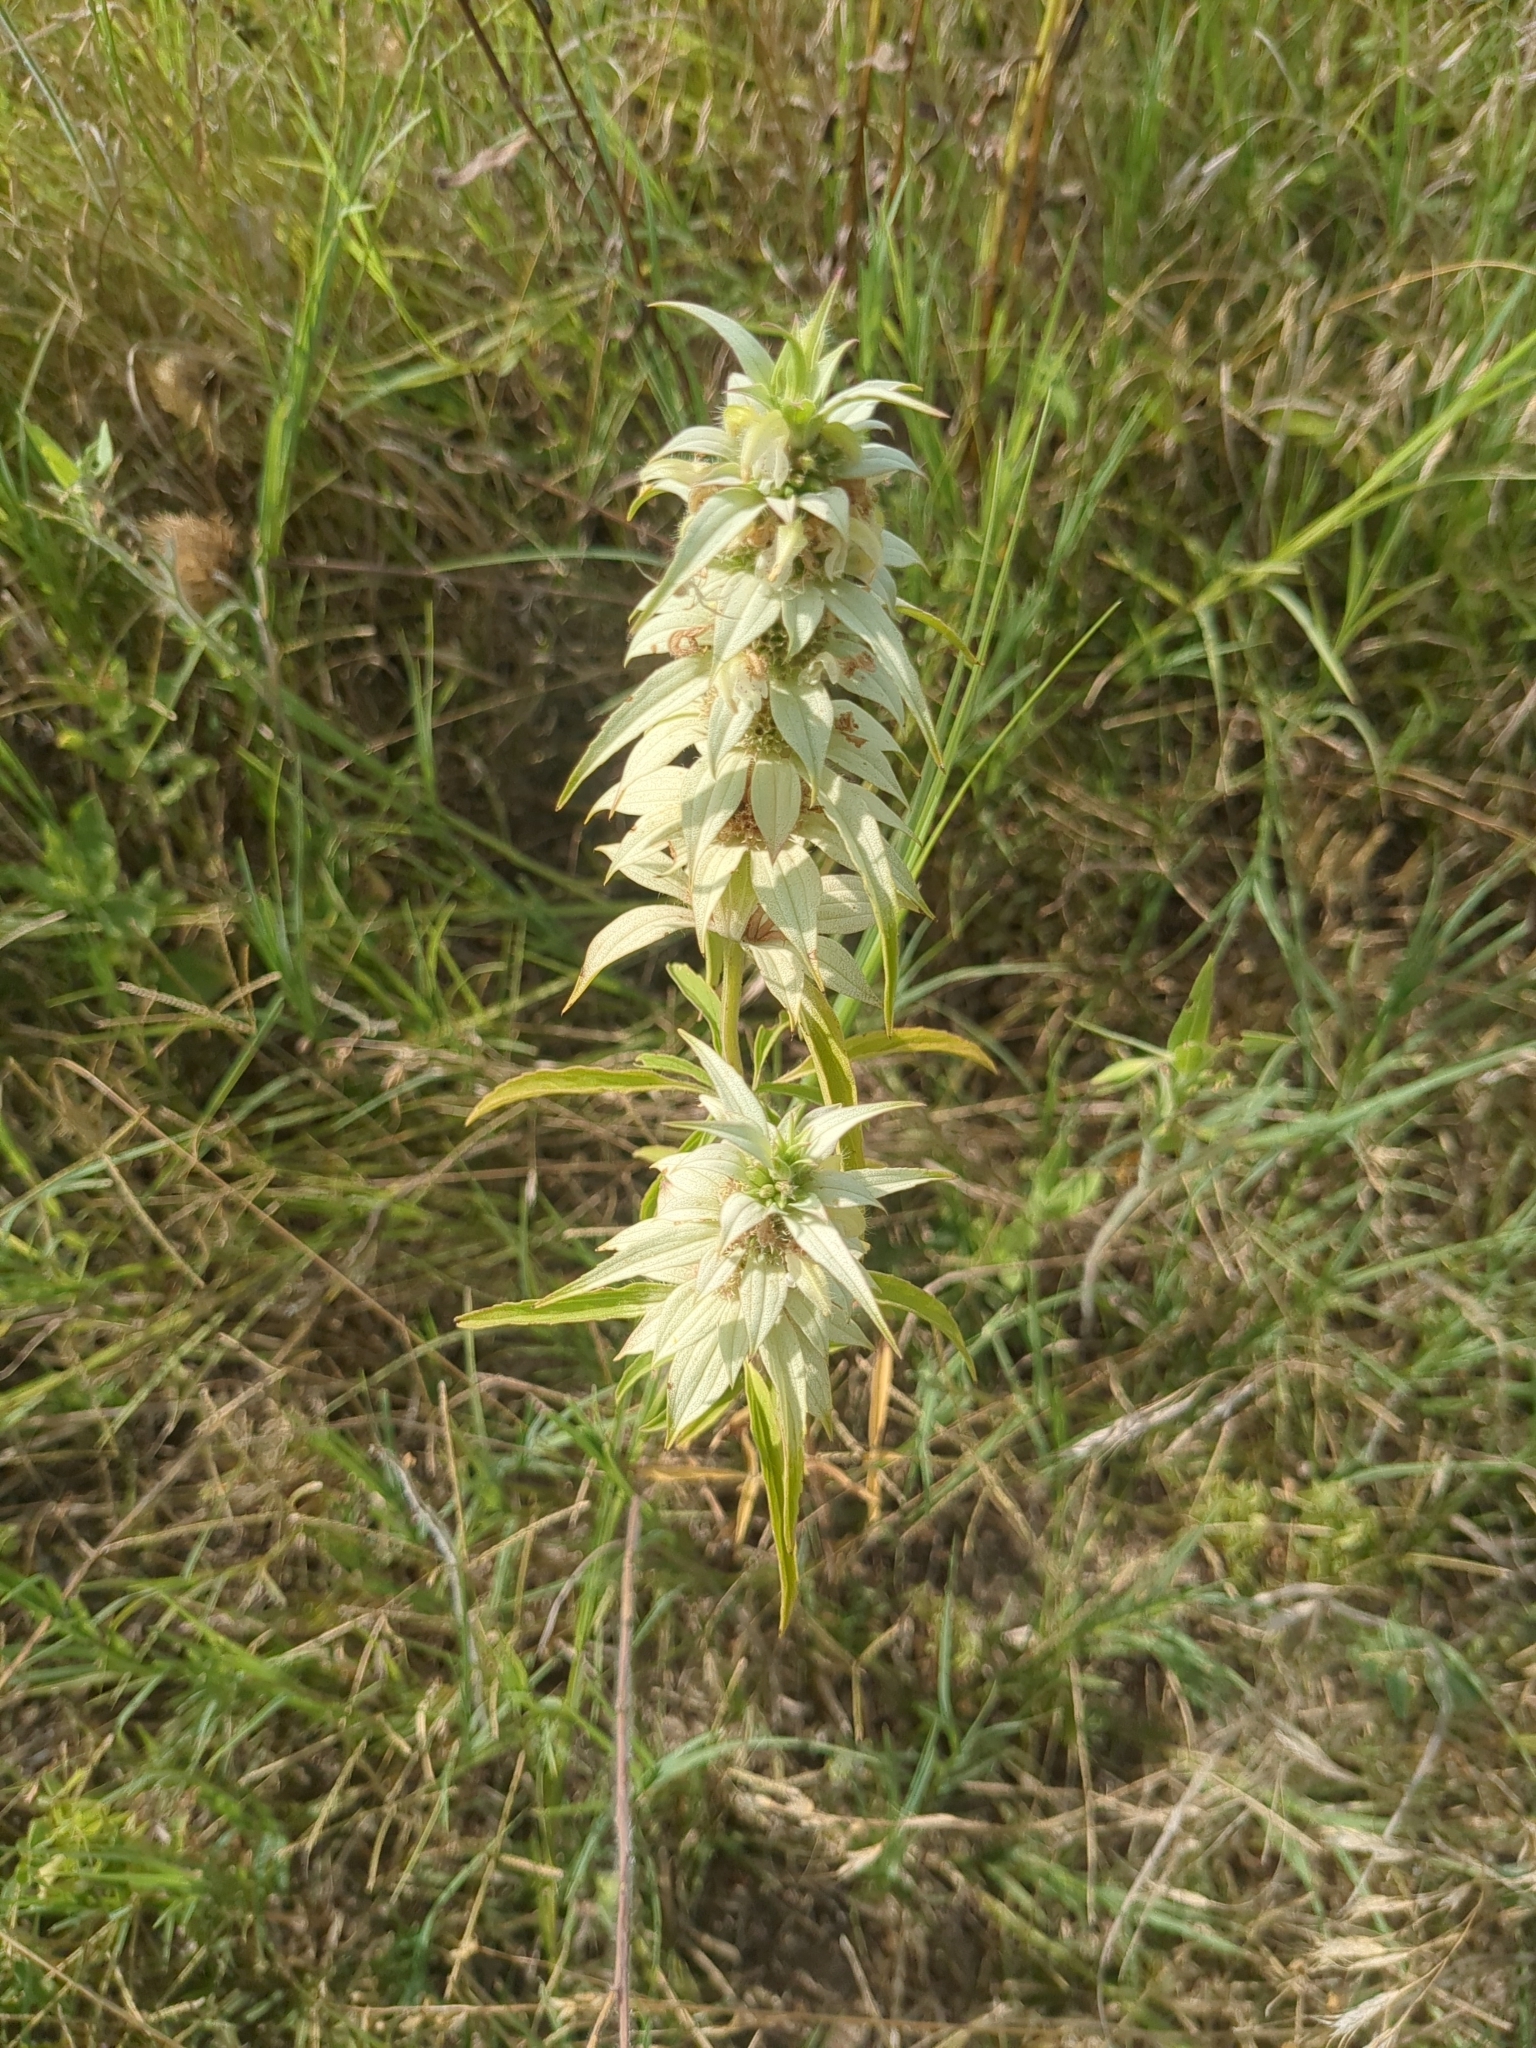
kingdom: Plantae
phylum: Tracheophyta
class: Magnoliopsida
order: Lamiales
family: Lamiaceae
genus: Monarda
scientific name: Monarda punctata
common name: Dotted monarda
